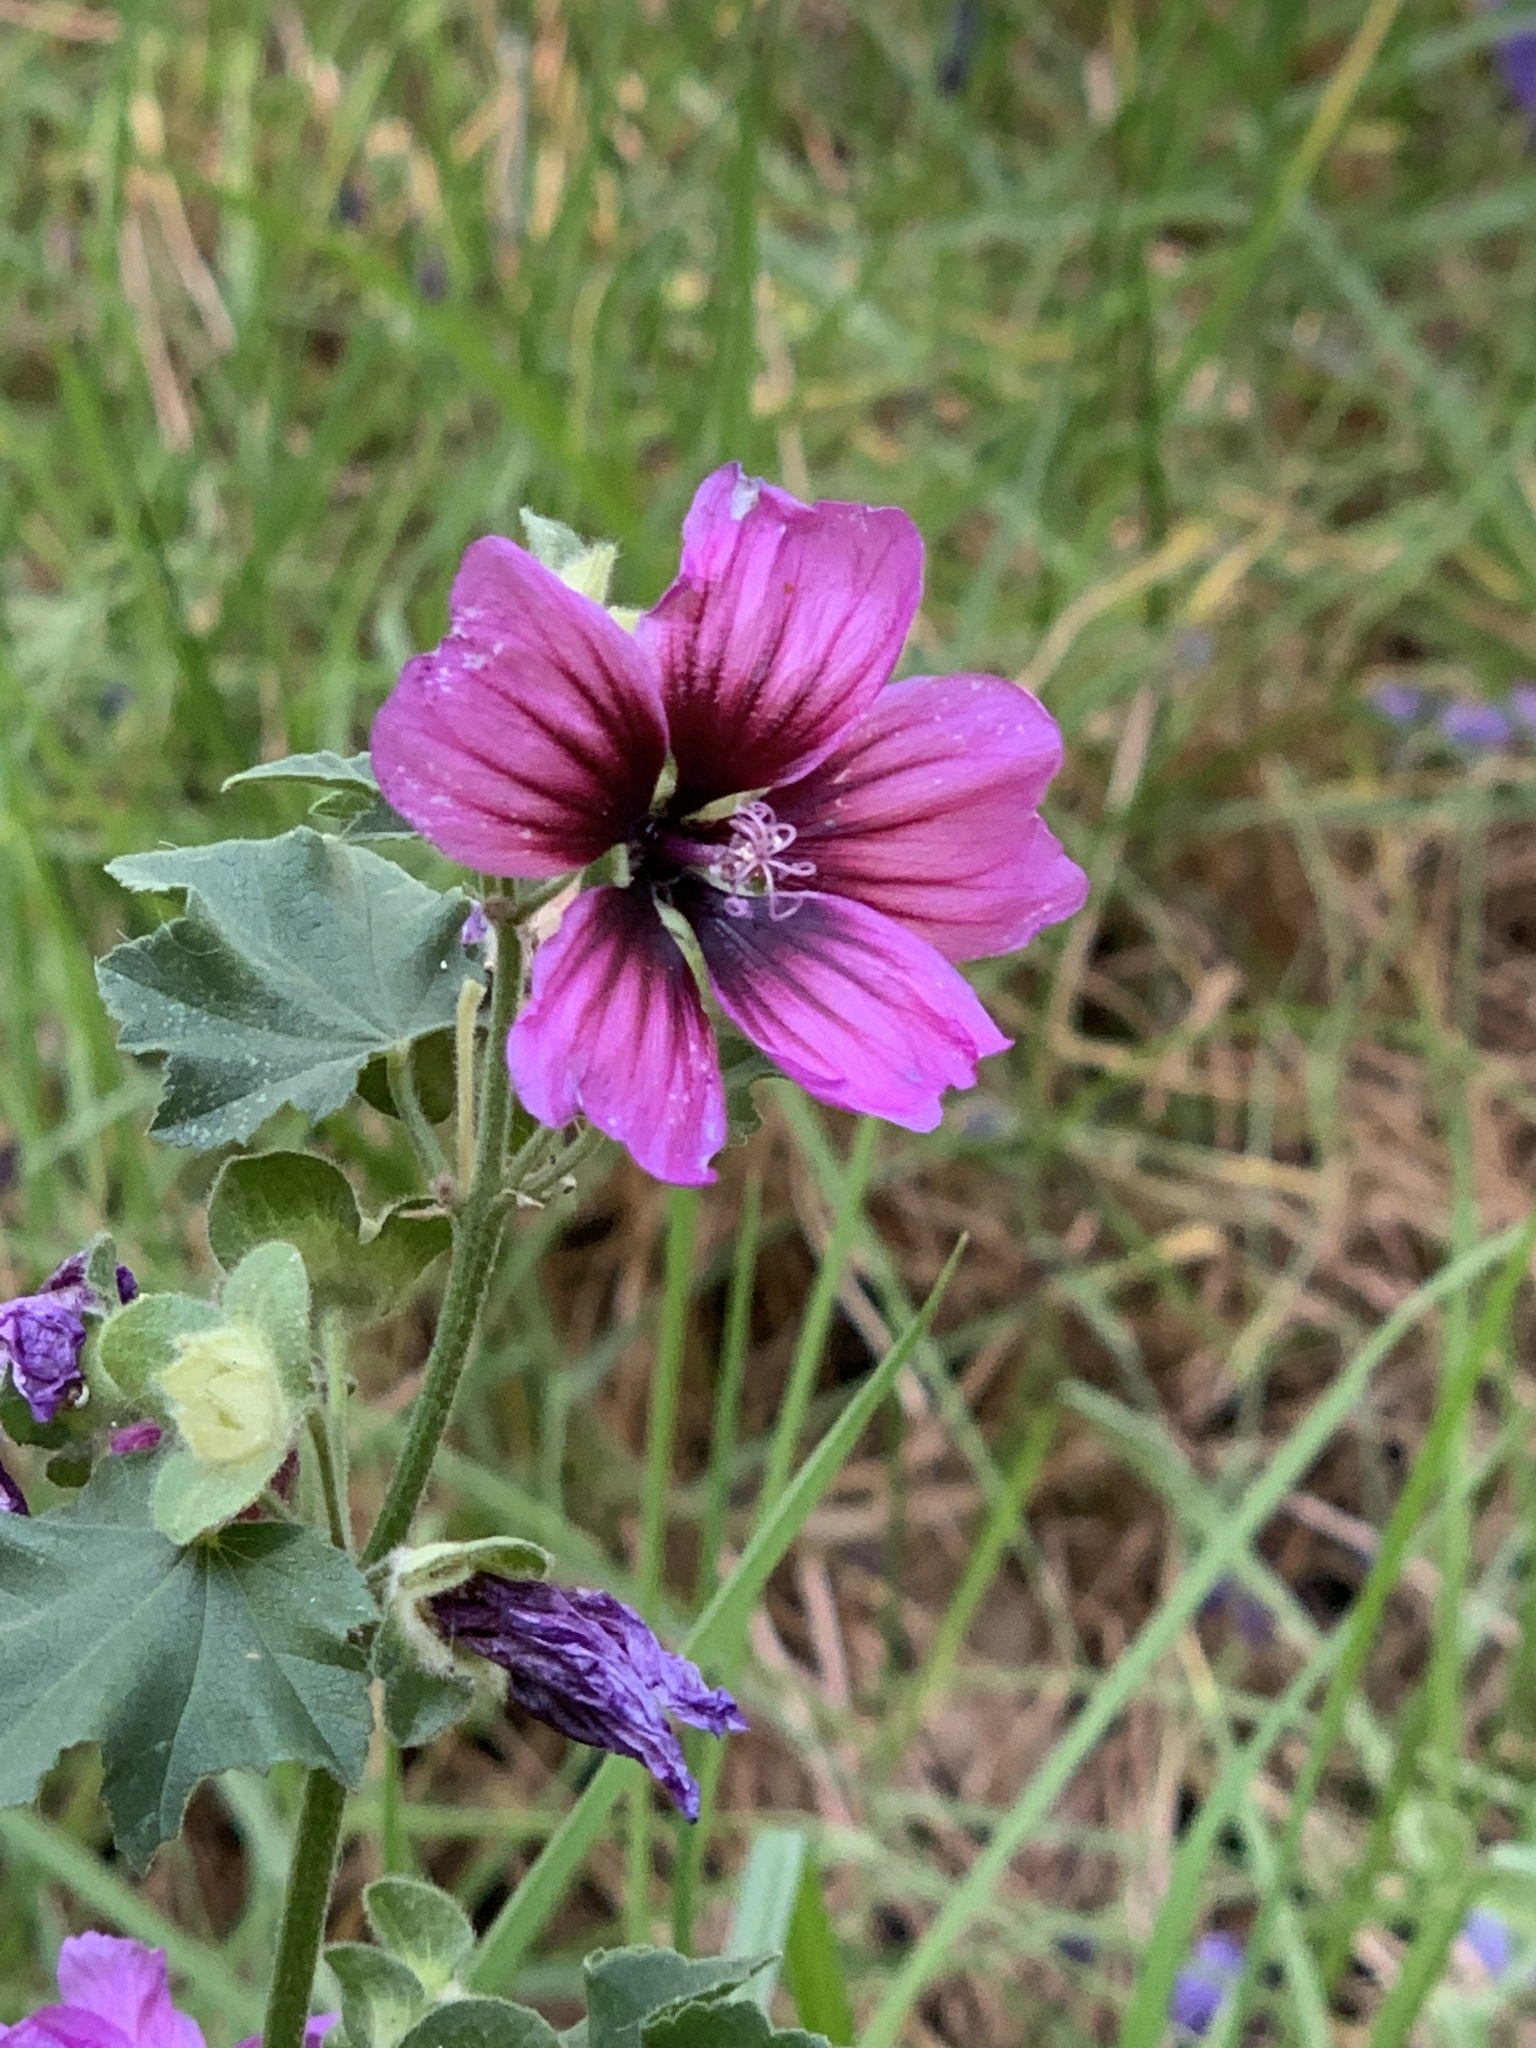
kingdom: Plantae
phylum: Tracheophyta
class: Magnoliopsida
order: Malvales
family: Malvaceae
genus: Malva
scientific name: Malva arborea
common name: Tree mallow
